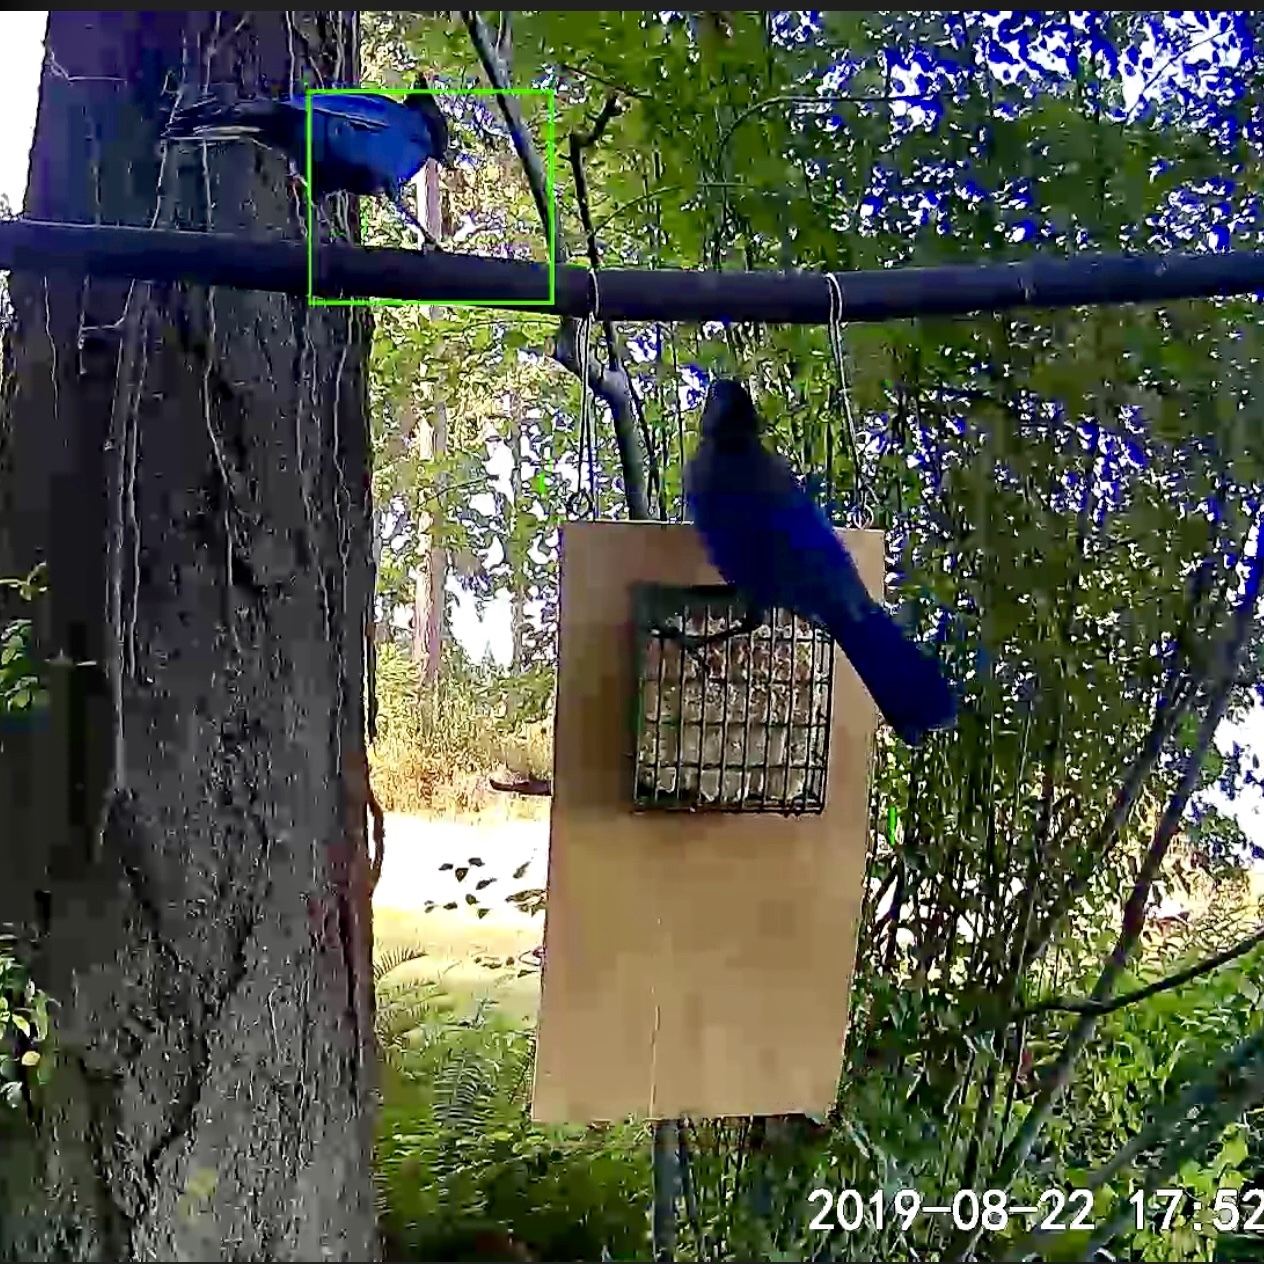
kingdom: Animalia
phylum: Chordata
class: Aves
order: Passeriformes
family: Corvidae
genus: Cyanocitta
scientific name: Cyanocitta stelleri
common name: Steller's jay
